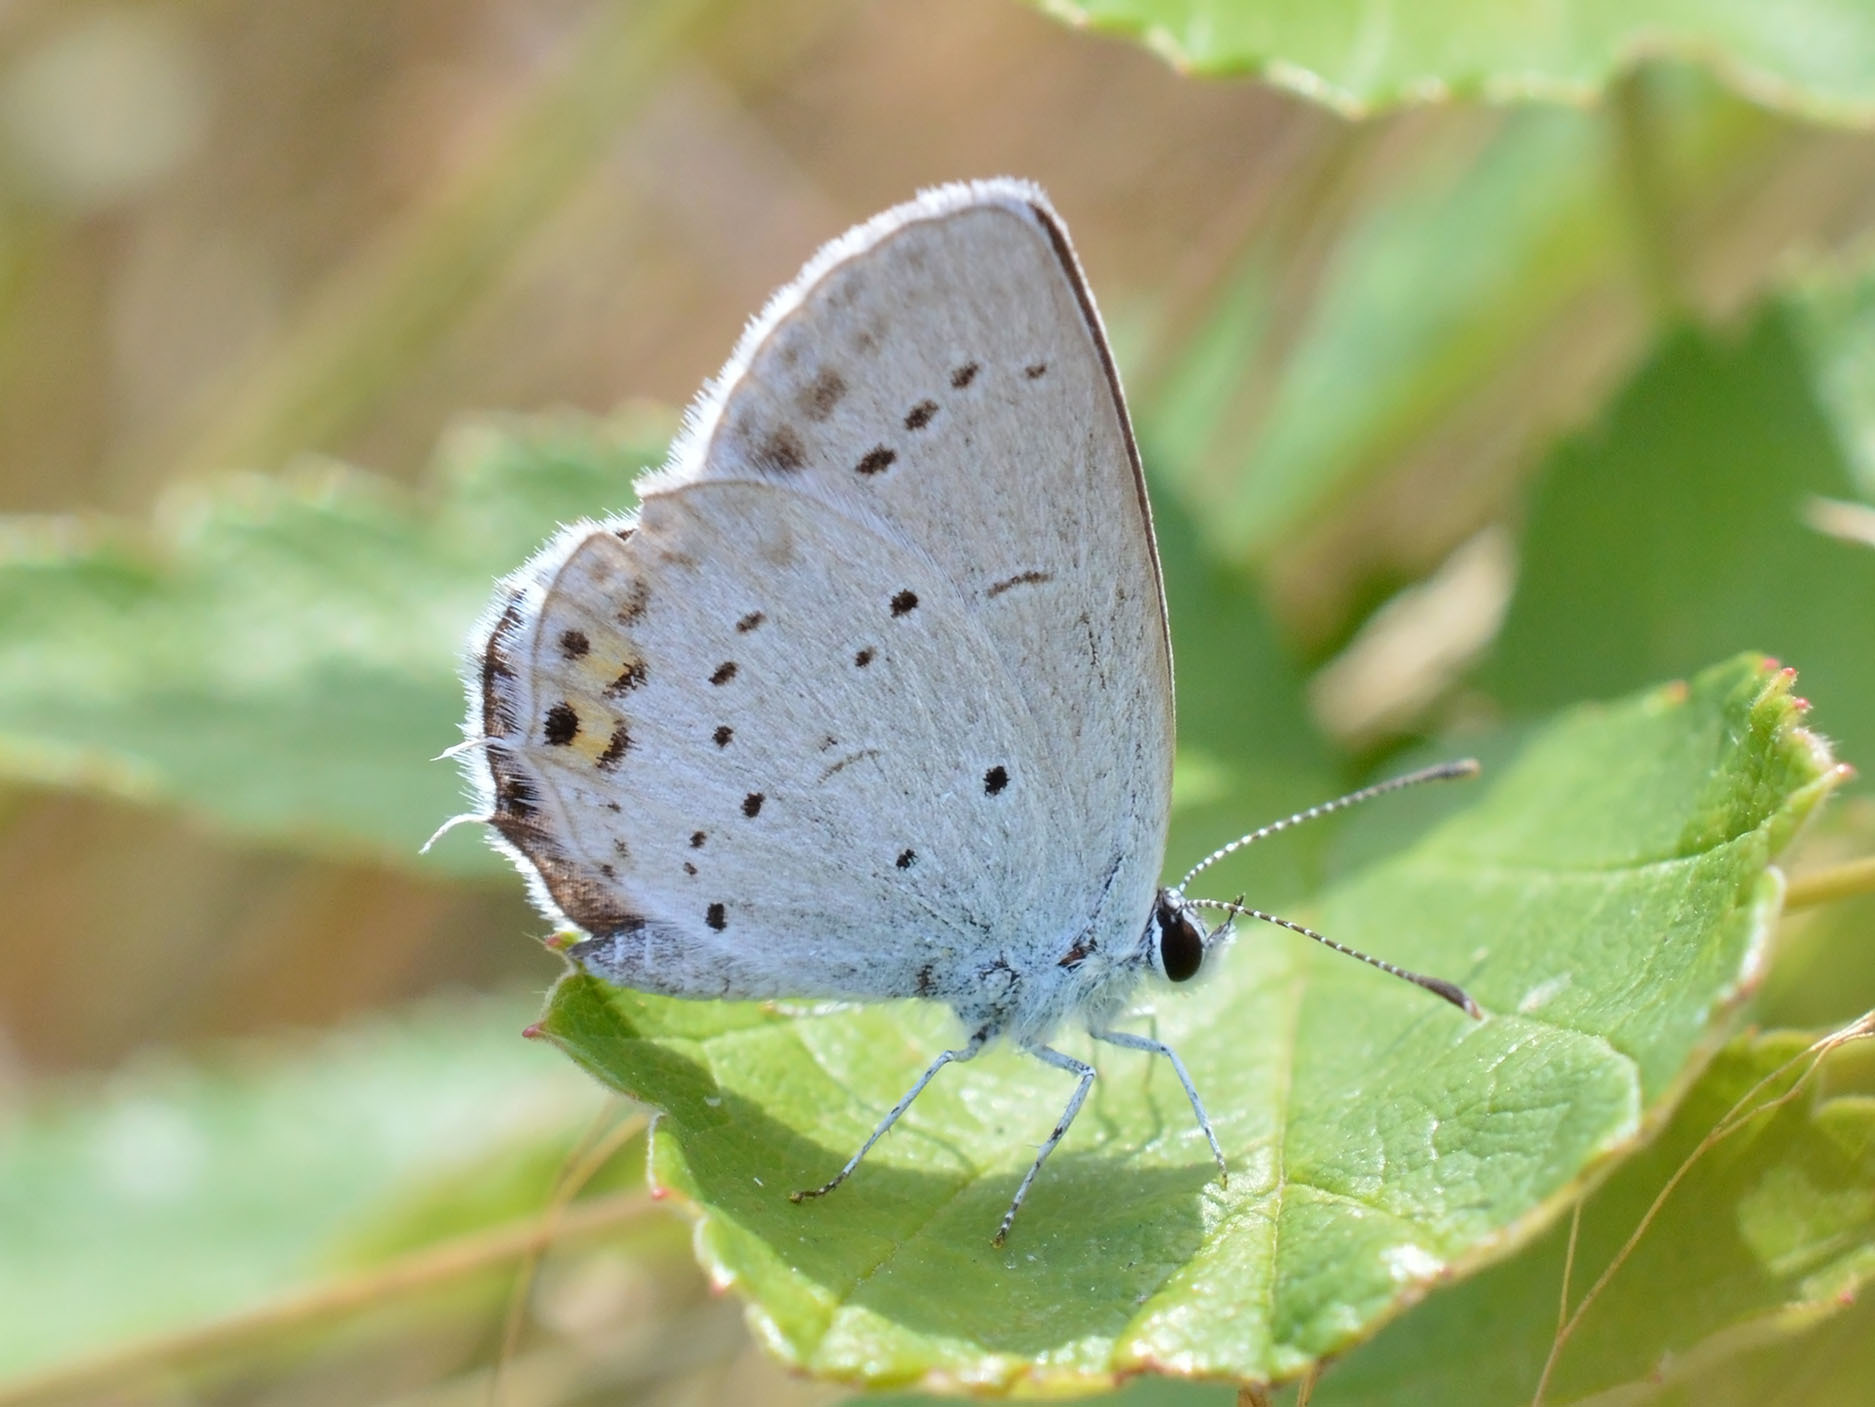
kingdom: Animalia
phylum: Arthropoda
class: Insecta
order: Lepidoptera
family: Lycaenidae
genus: Elkalyce
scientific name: Elkalyce argiades
